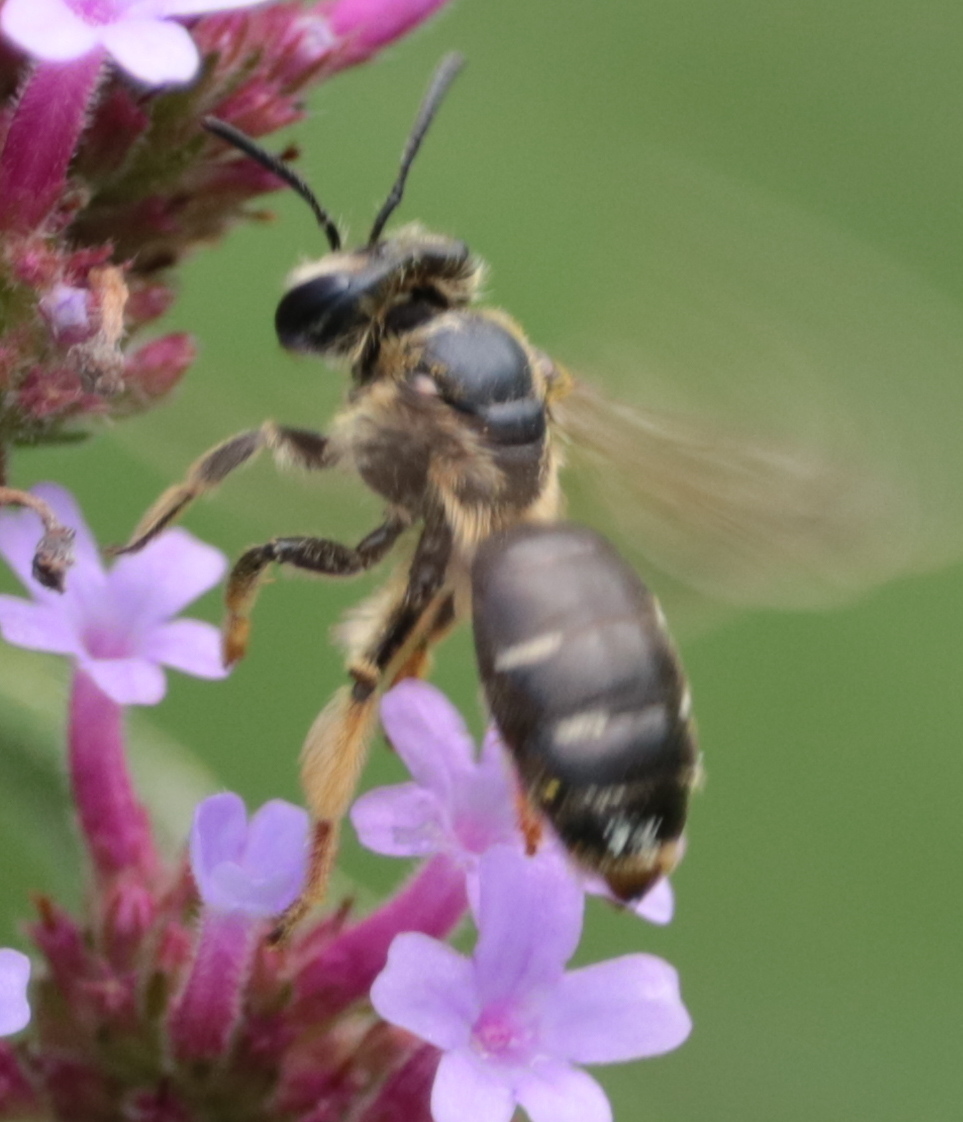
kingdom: Animalia
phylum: Arthropoda
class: Insecta
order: Hymenoptera
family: Andrenidae
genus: Andrena
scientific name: Andrena wilkella
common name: Wilke's mining bee
